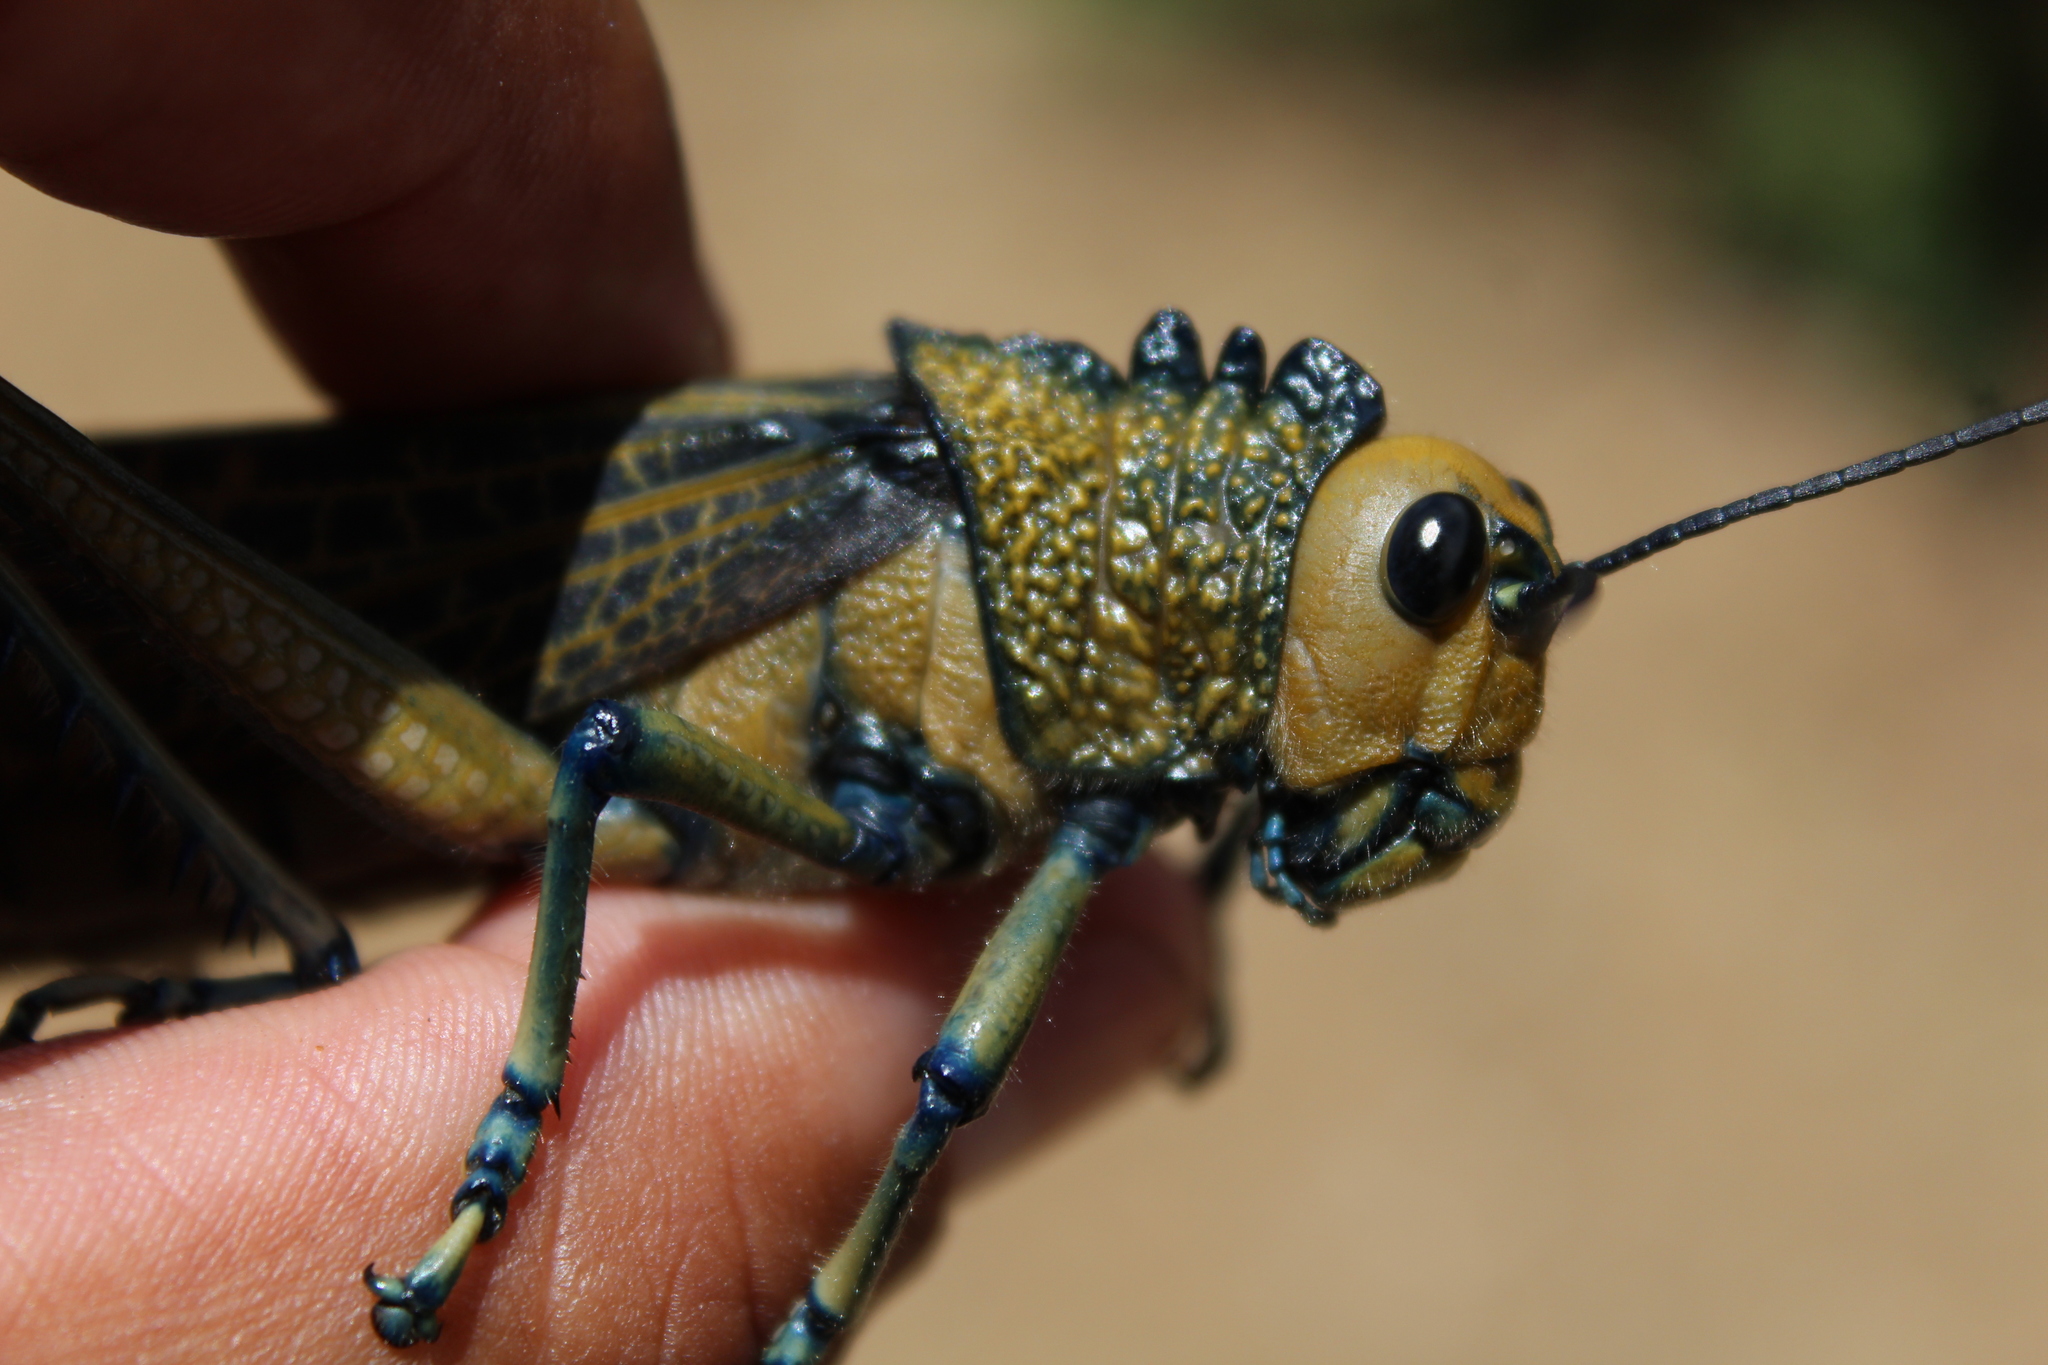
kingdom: Animalia
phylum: Arthropoda
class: Insecta
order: Orthoptera
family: Romaleidae
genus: Tropidacris
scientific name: Tropidacris cristata
